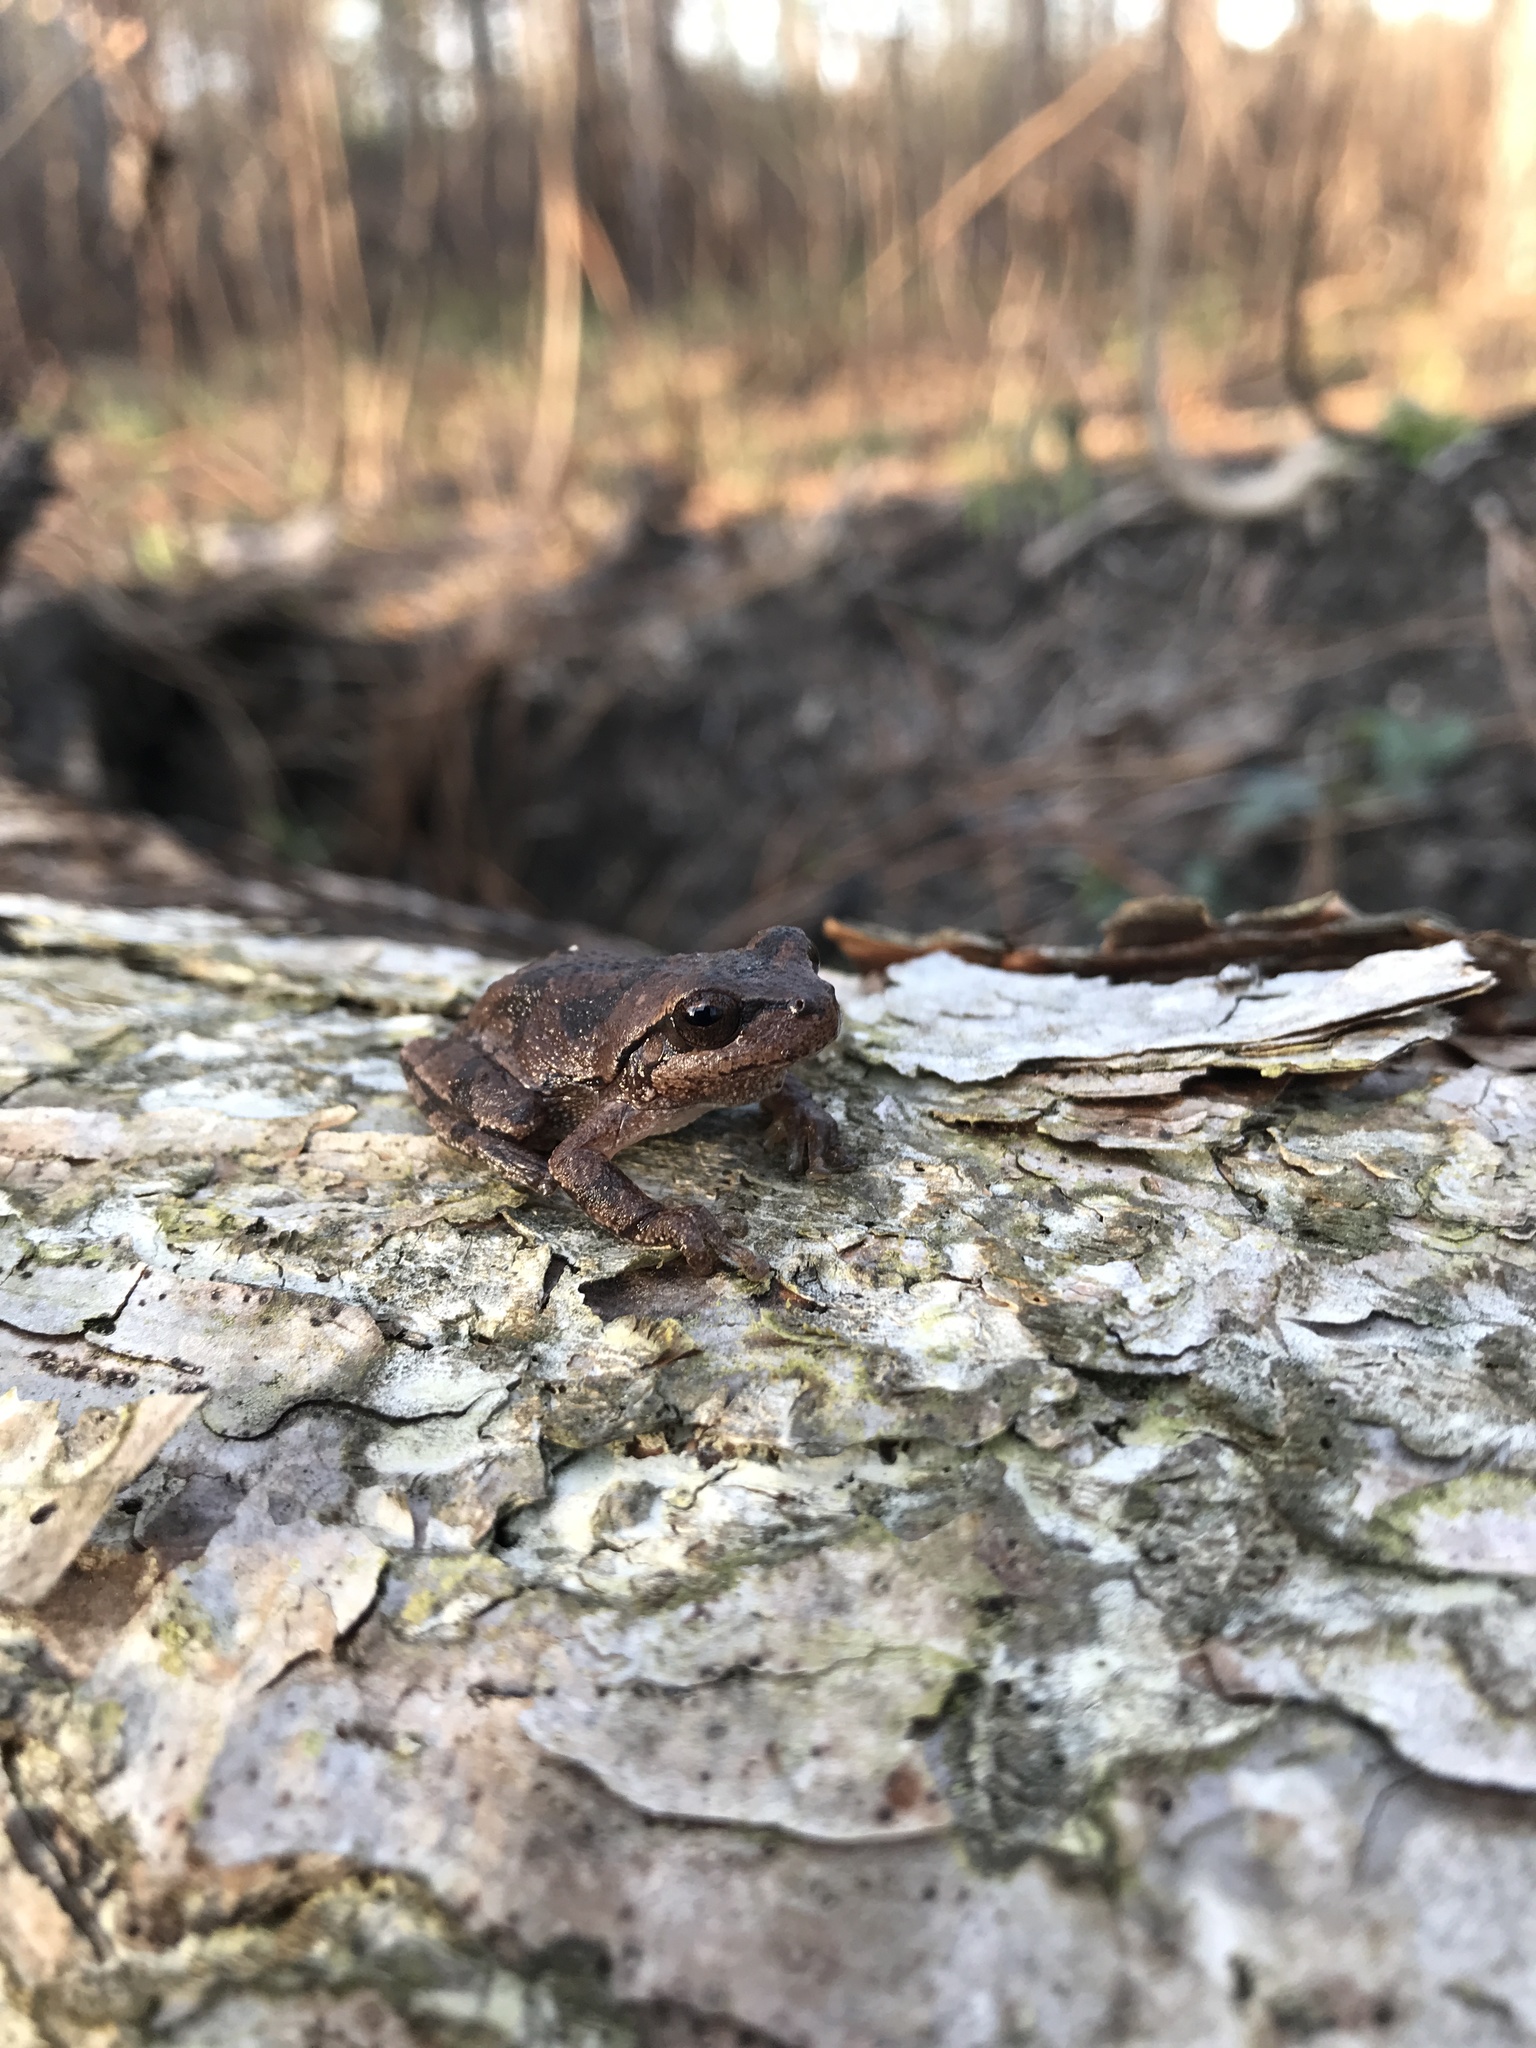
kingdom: Animalia
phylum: Chordata
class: Amphibia
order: Anura
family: Hylidae
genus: Hyla
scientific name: Hyla femoralis
